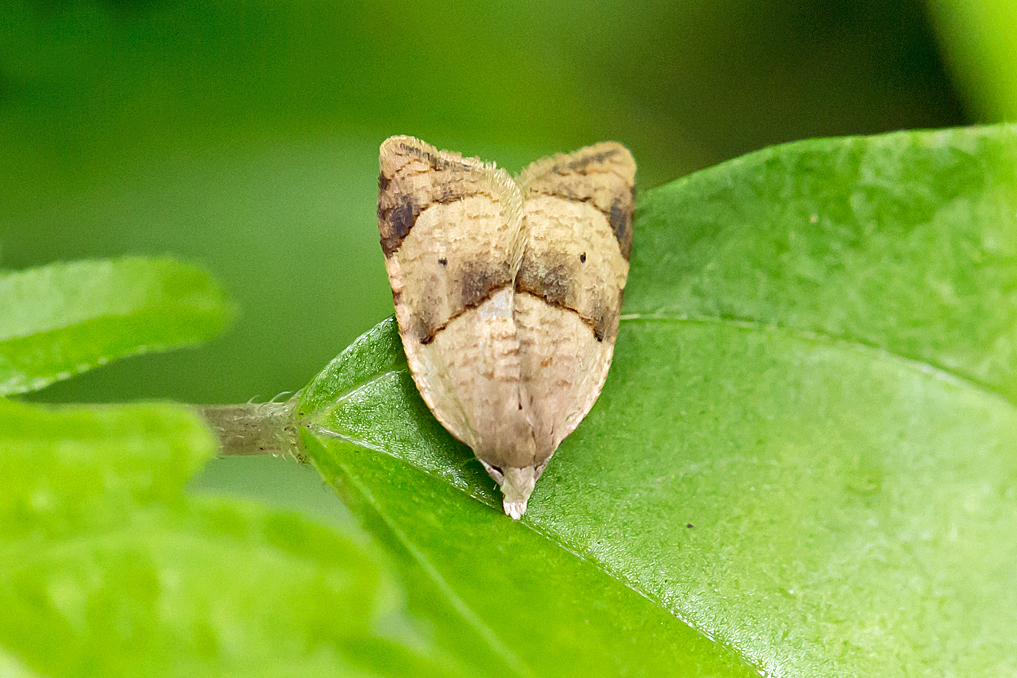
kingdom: Animalia
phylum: Arthropoda
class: Insecta
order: Lepidoptera
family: Tortricidae
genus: Coelostathma
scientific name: Coelostathma discopunctana
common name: Batman moth
